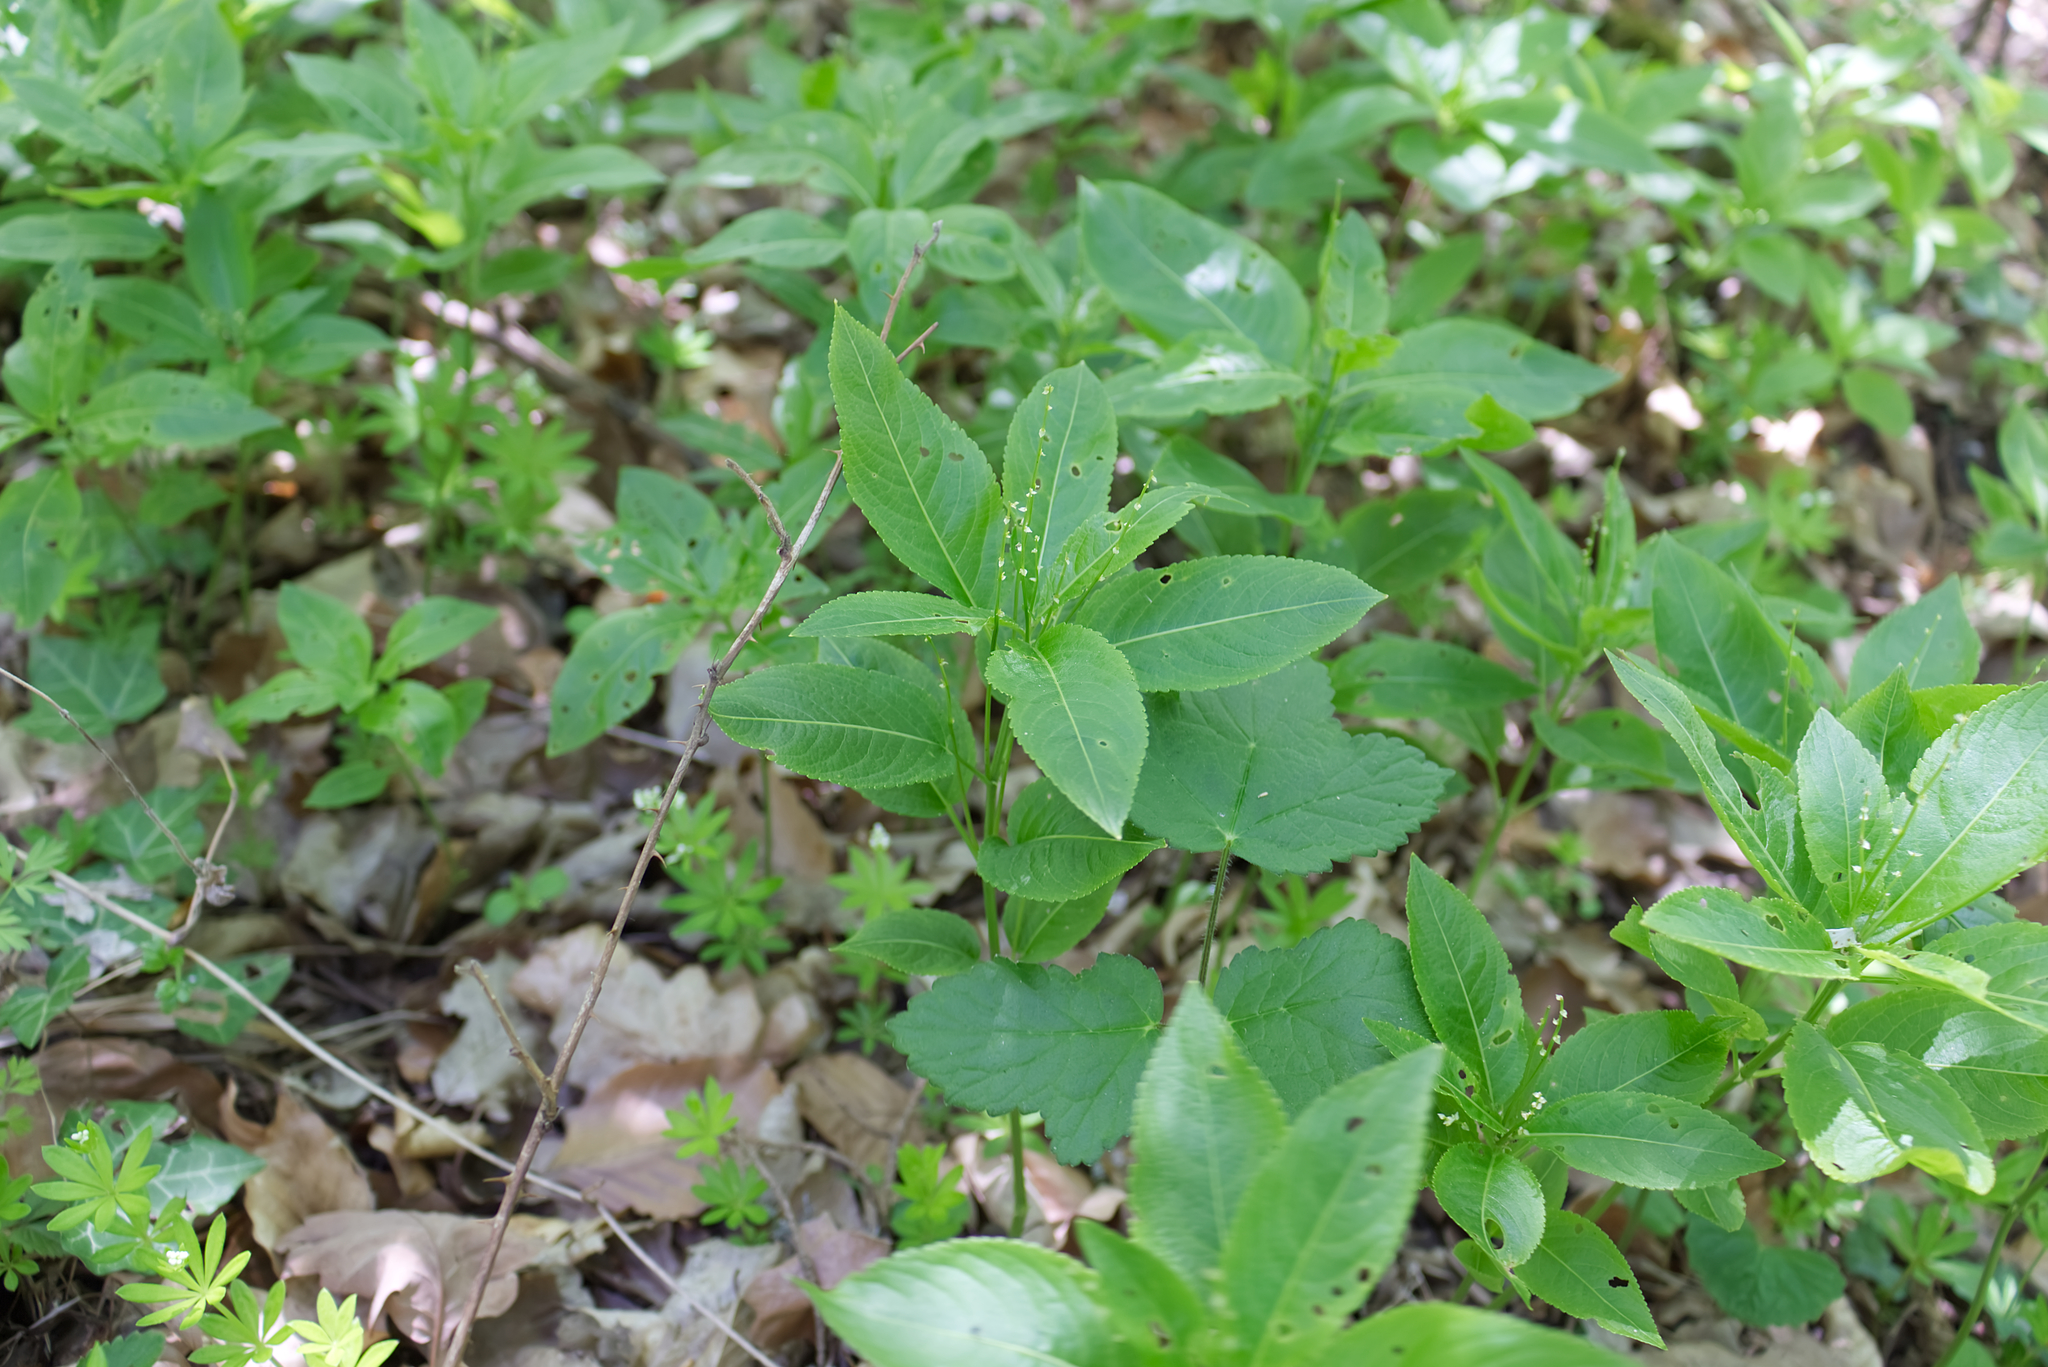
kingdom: Plantae
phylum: Tracheophyta
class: Magnoliopsida
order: Malpighiales
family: Euphorbiaceae
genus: Mercurialis
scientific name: Mercurialis perennis
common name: Dog mercury
